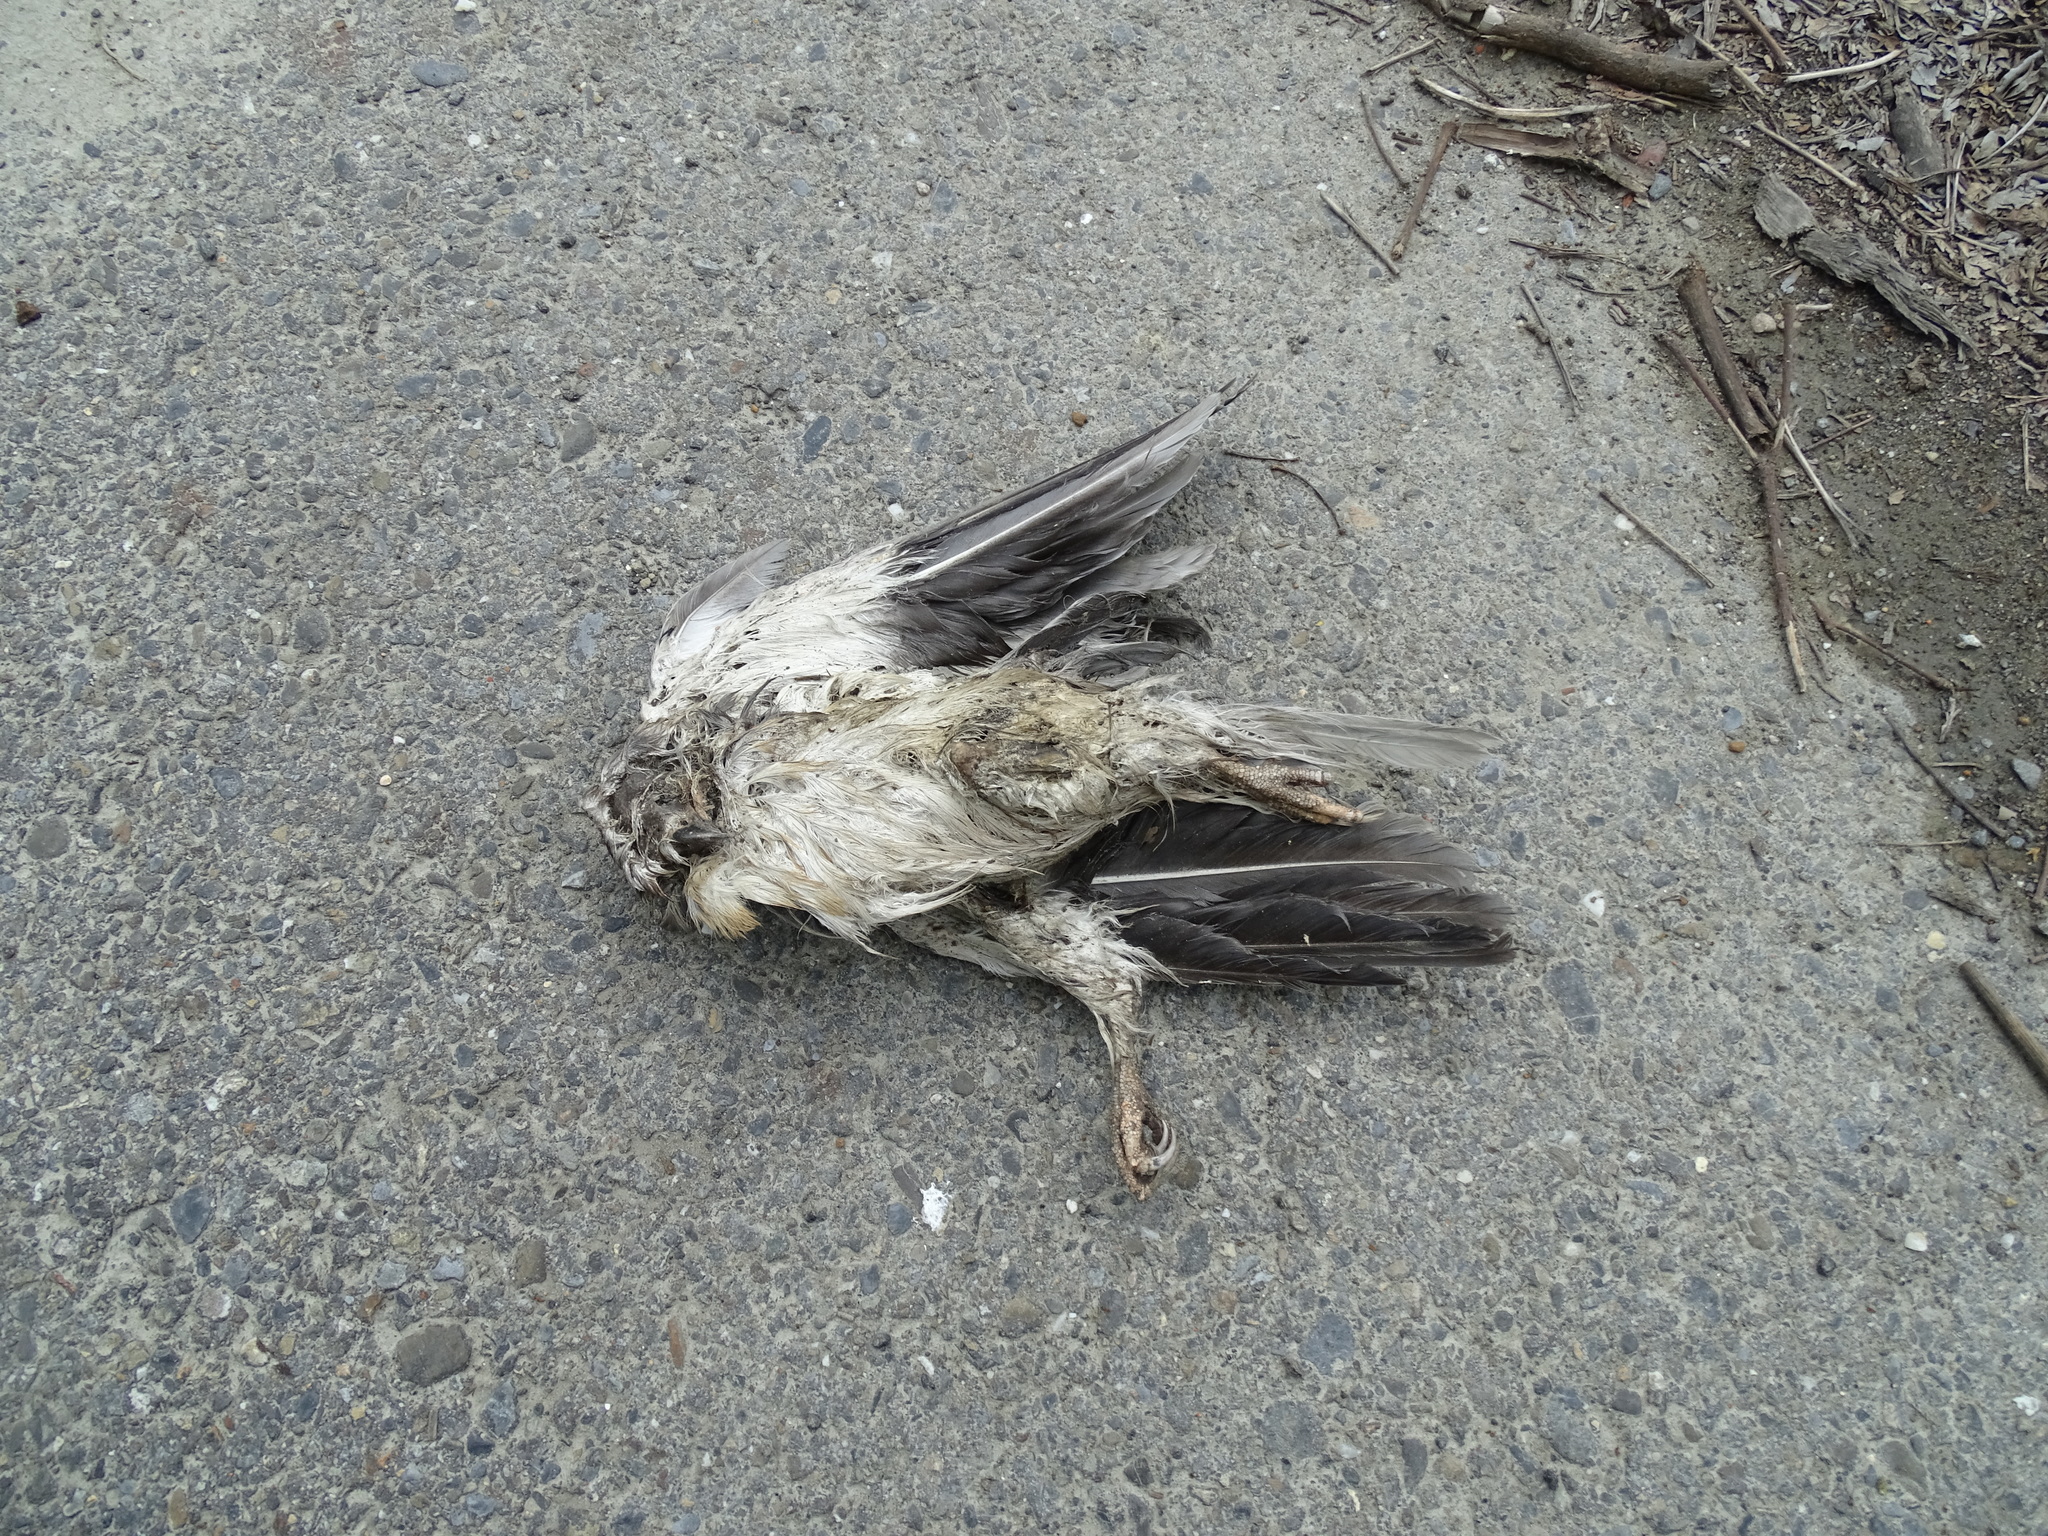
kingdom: Animalia
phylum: Chordata
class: Aves
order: Accipitriformes
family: Accipitridae
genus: Elanus
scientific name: Elanus caeruleus
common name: Black-winged kite
